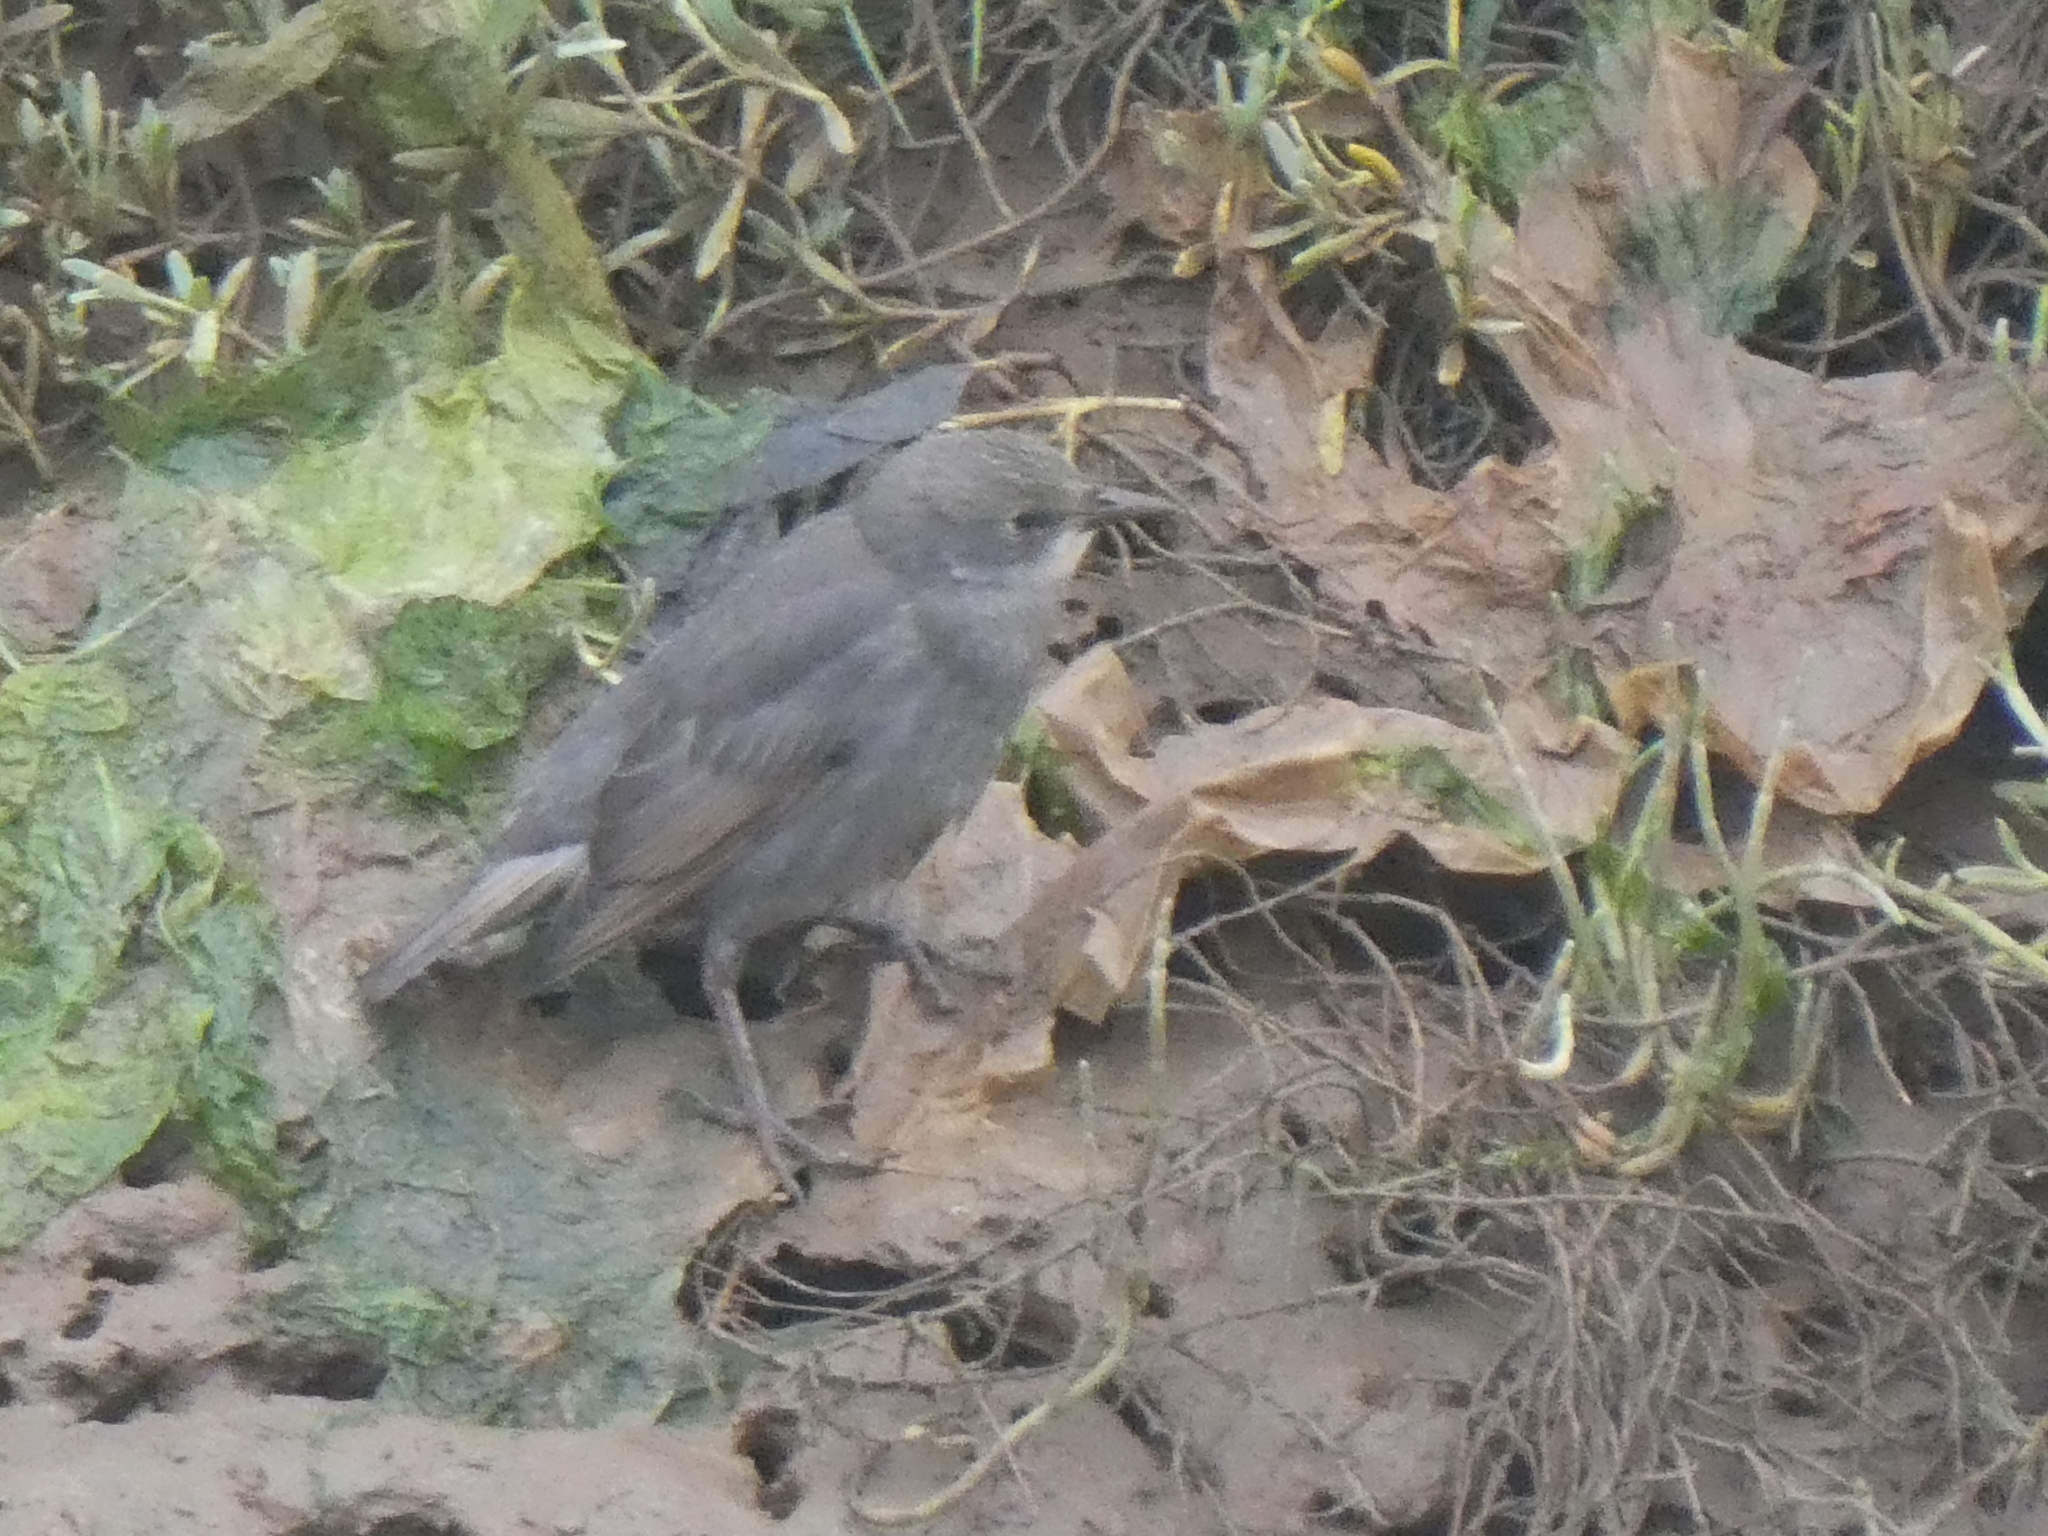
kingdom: Animalia
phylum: Chordata
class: Aves
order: Passeriformes
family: Sturnidae
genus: Sturnus
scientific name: Sturnus vulgaris
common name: Common starling
